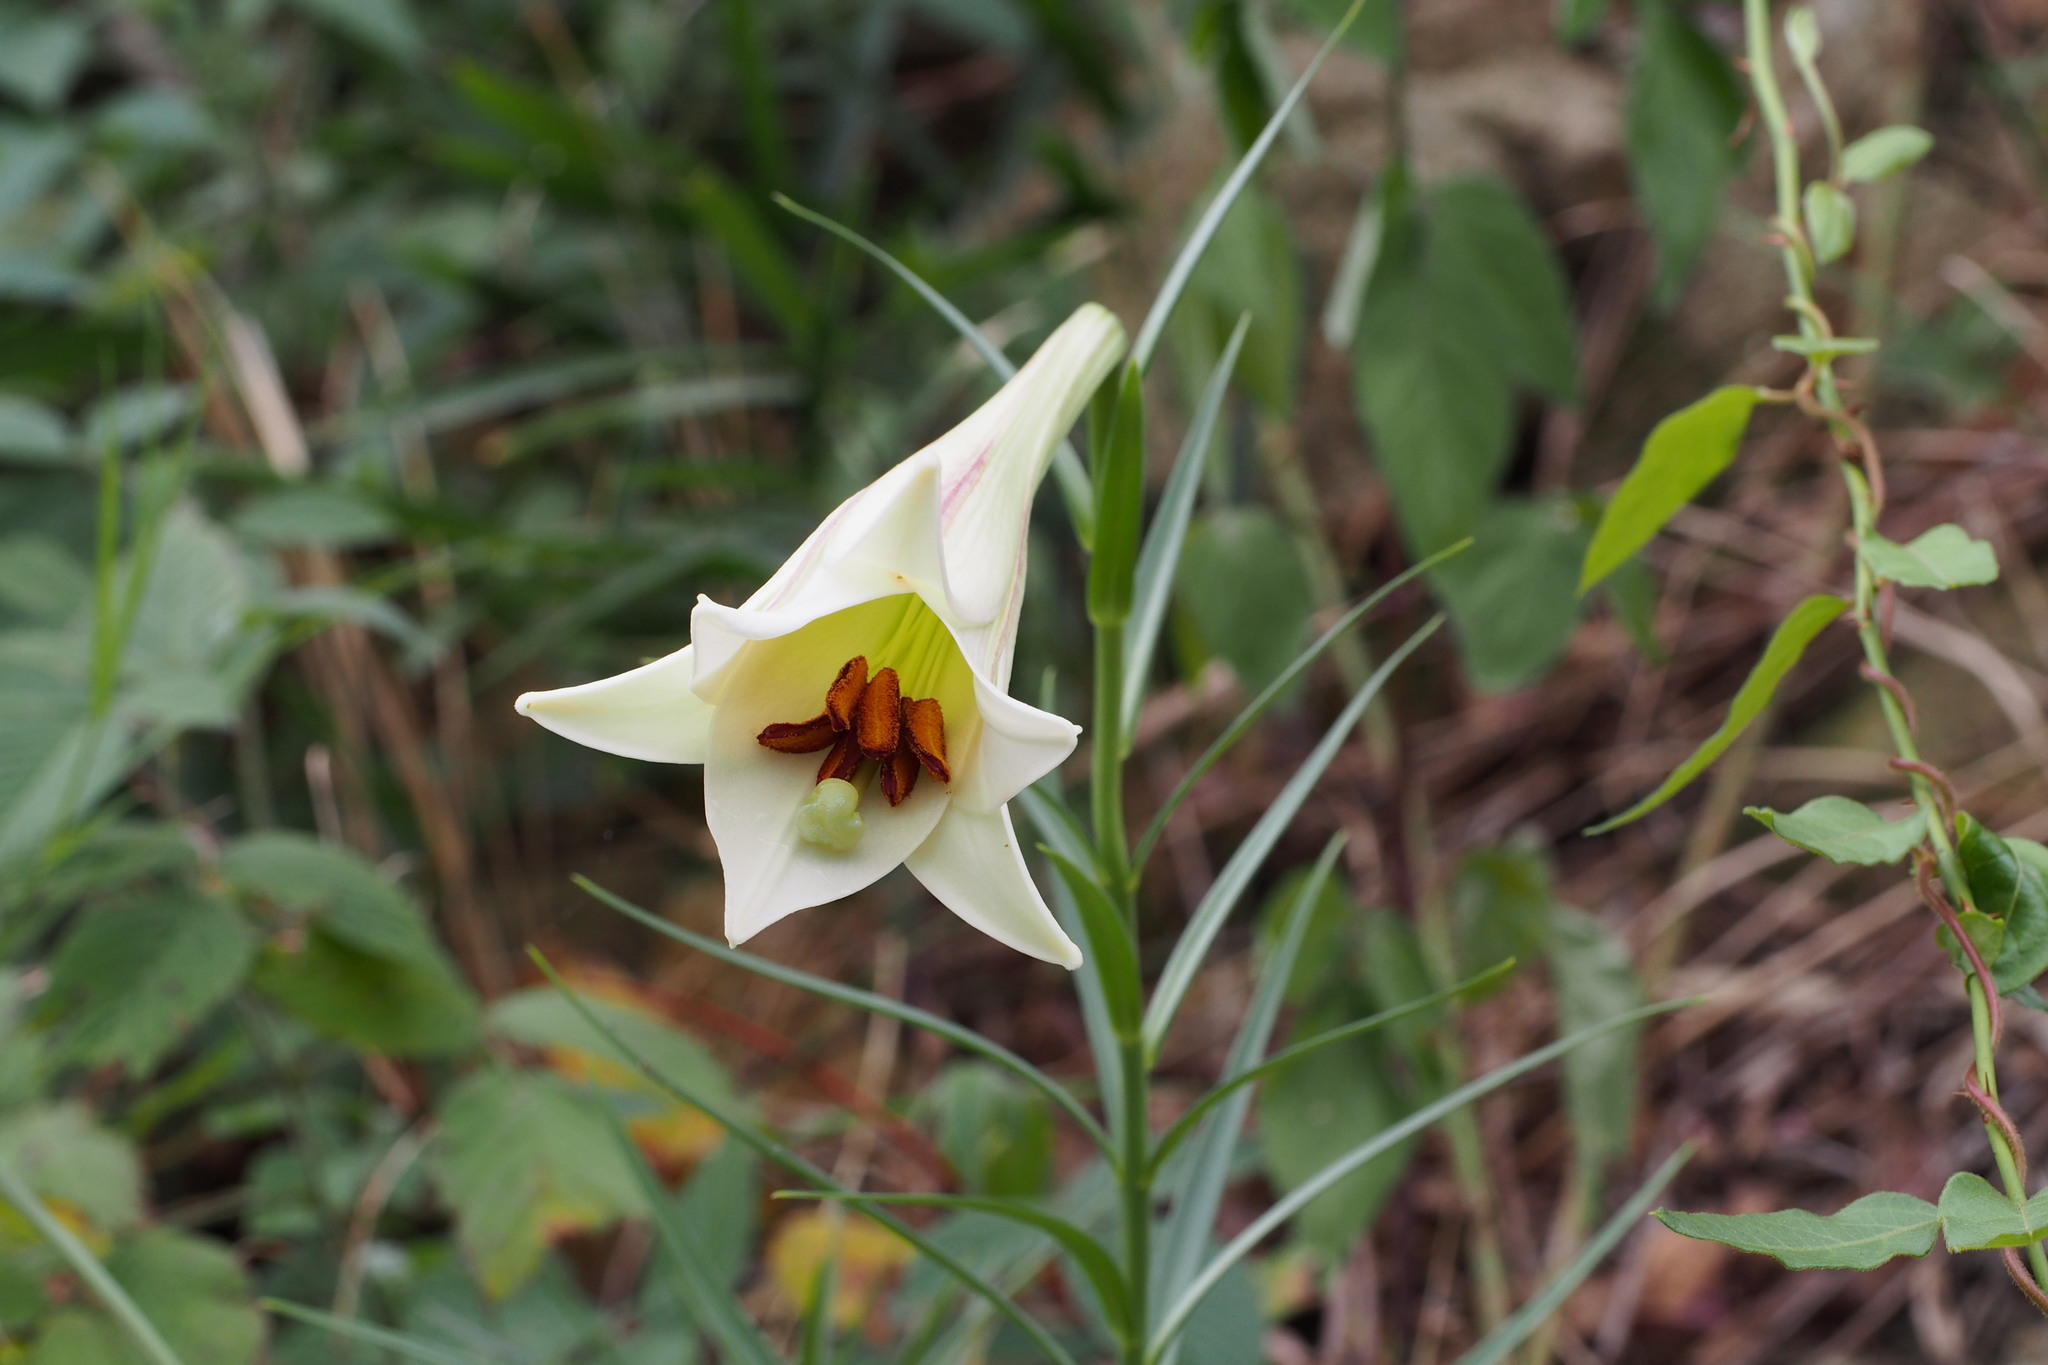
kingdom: Plantae
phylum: Tracheophyta
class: Liliopsida
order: Liliales
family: Liliaceae
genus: Lilium
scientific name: Lilium formosanum
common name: Formosa lily
